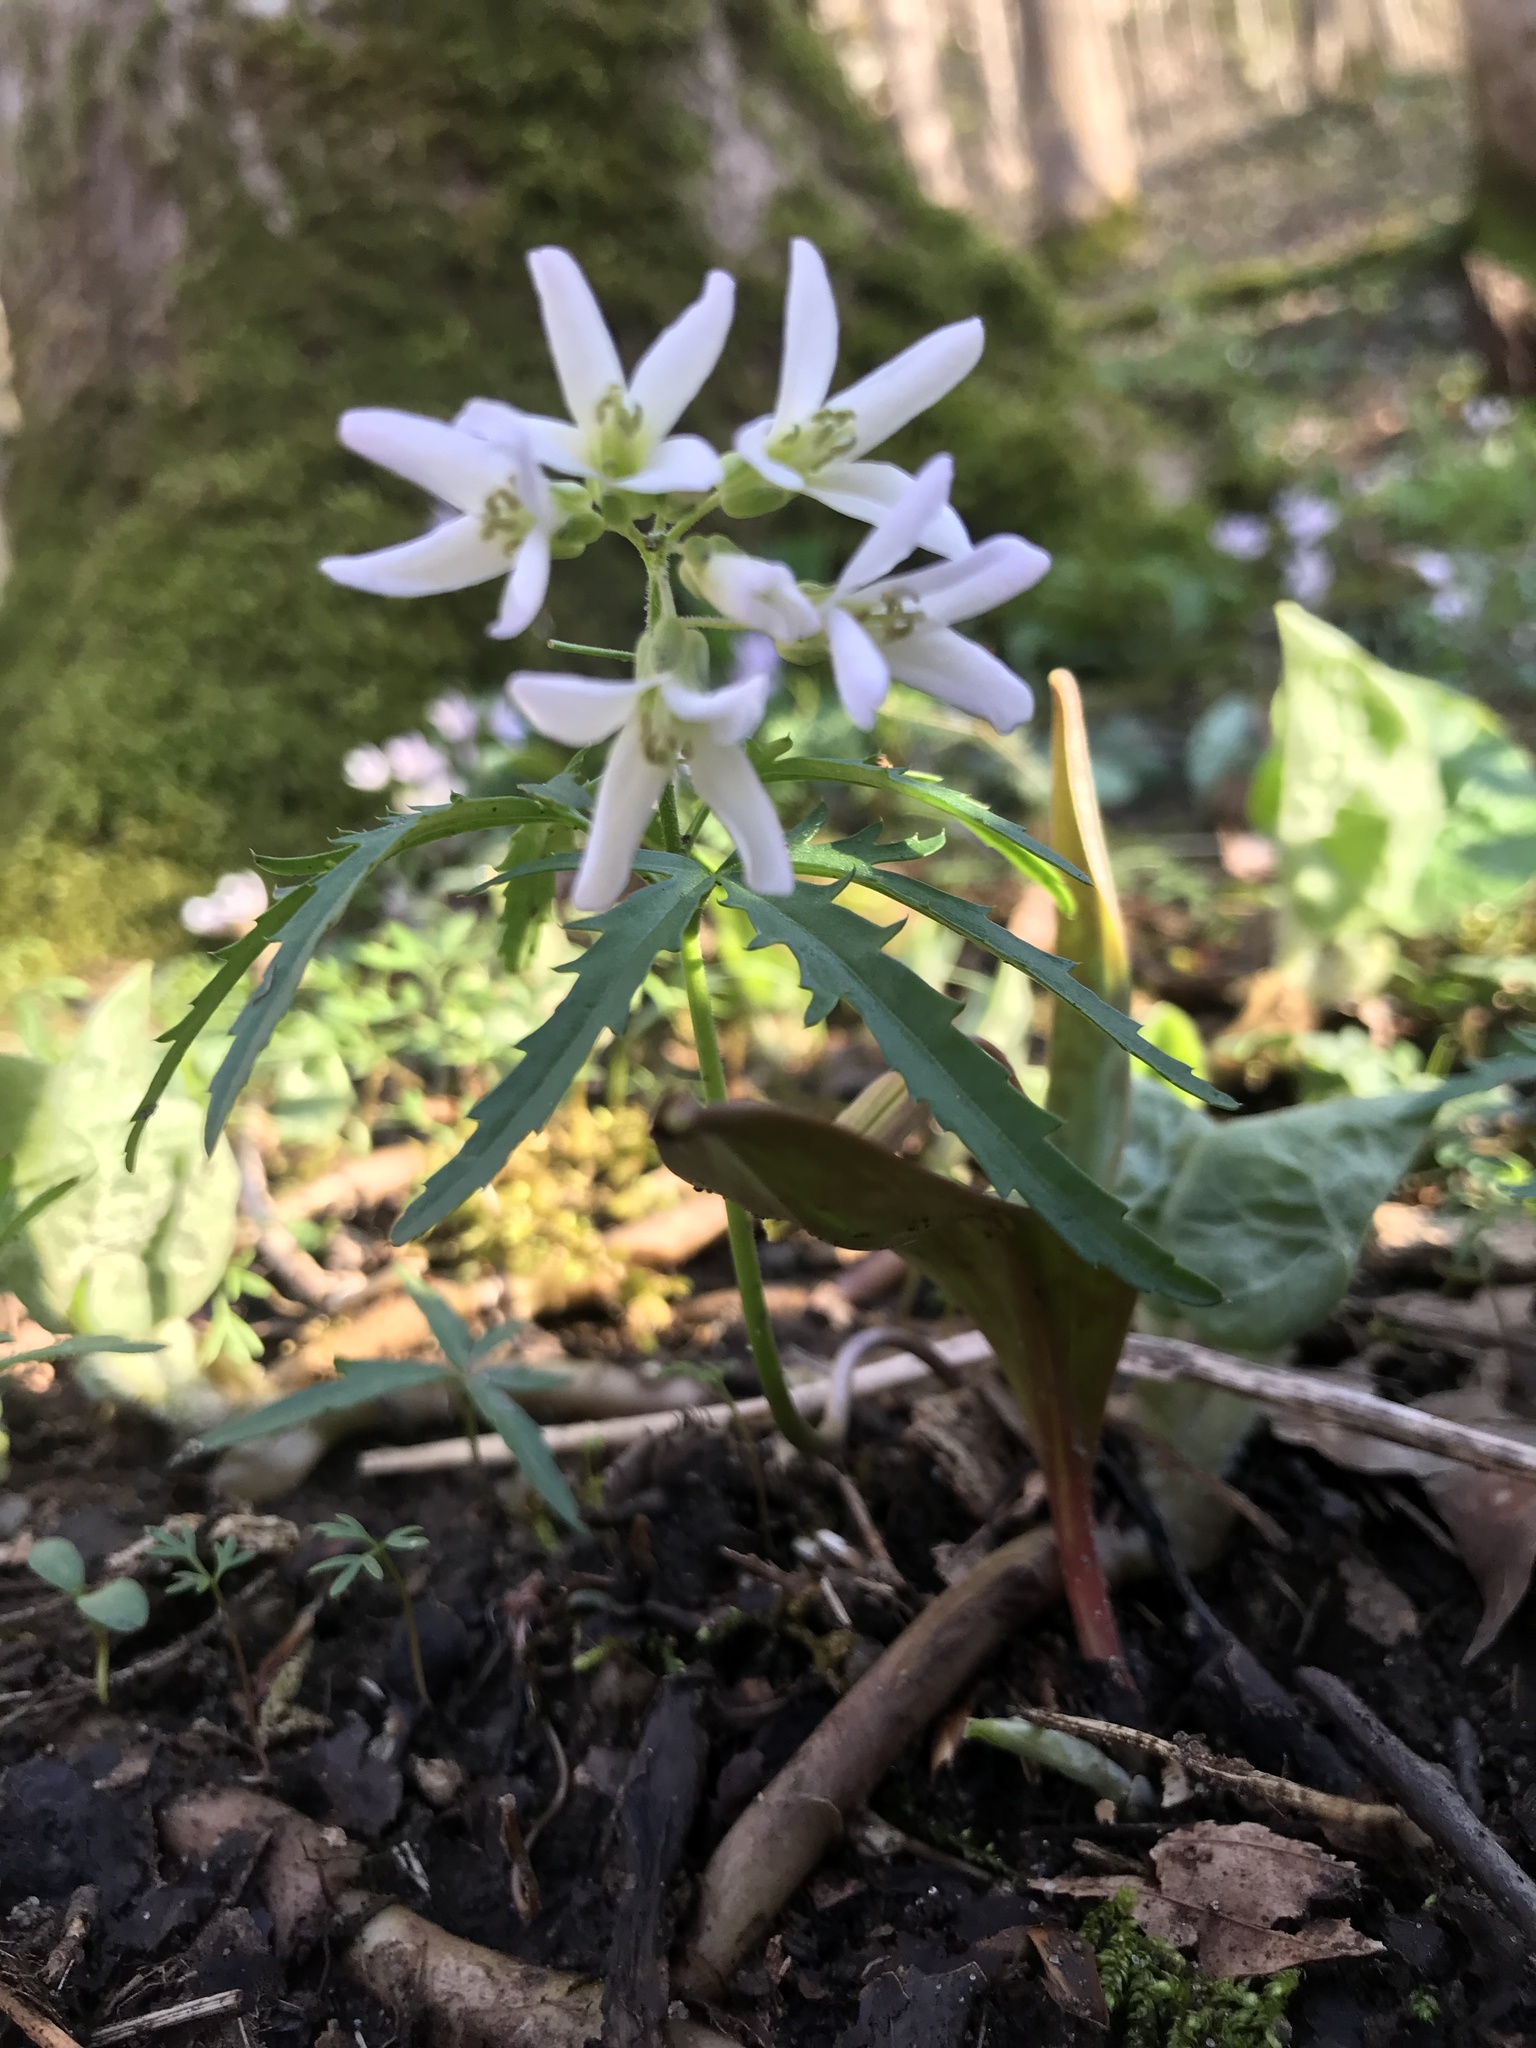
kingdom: Plantae
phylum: Tracheophyta
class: Magnoliopsida
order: Brassicales
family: Brassicaceae
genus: Cardamine
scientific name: Cardamine concatenata
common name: Cut-leaf toothcup
